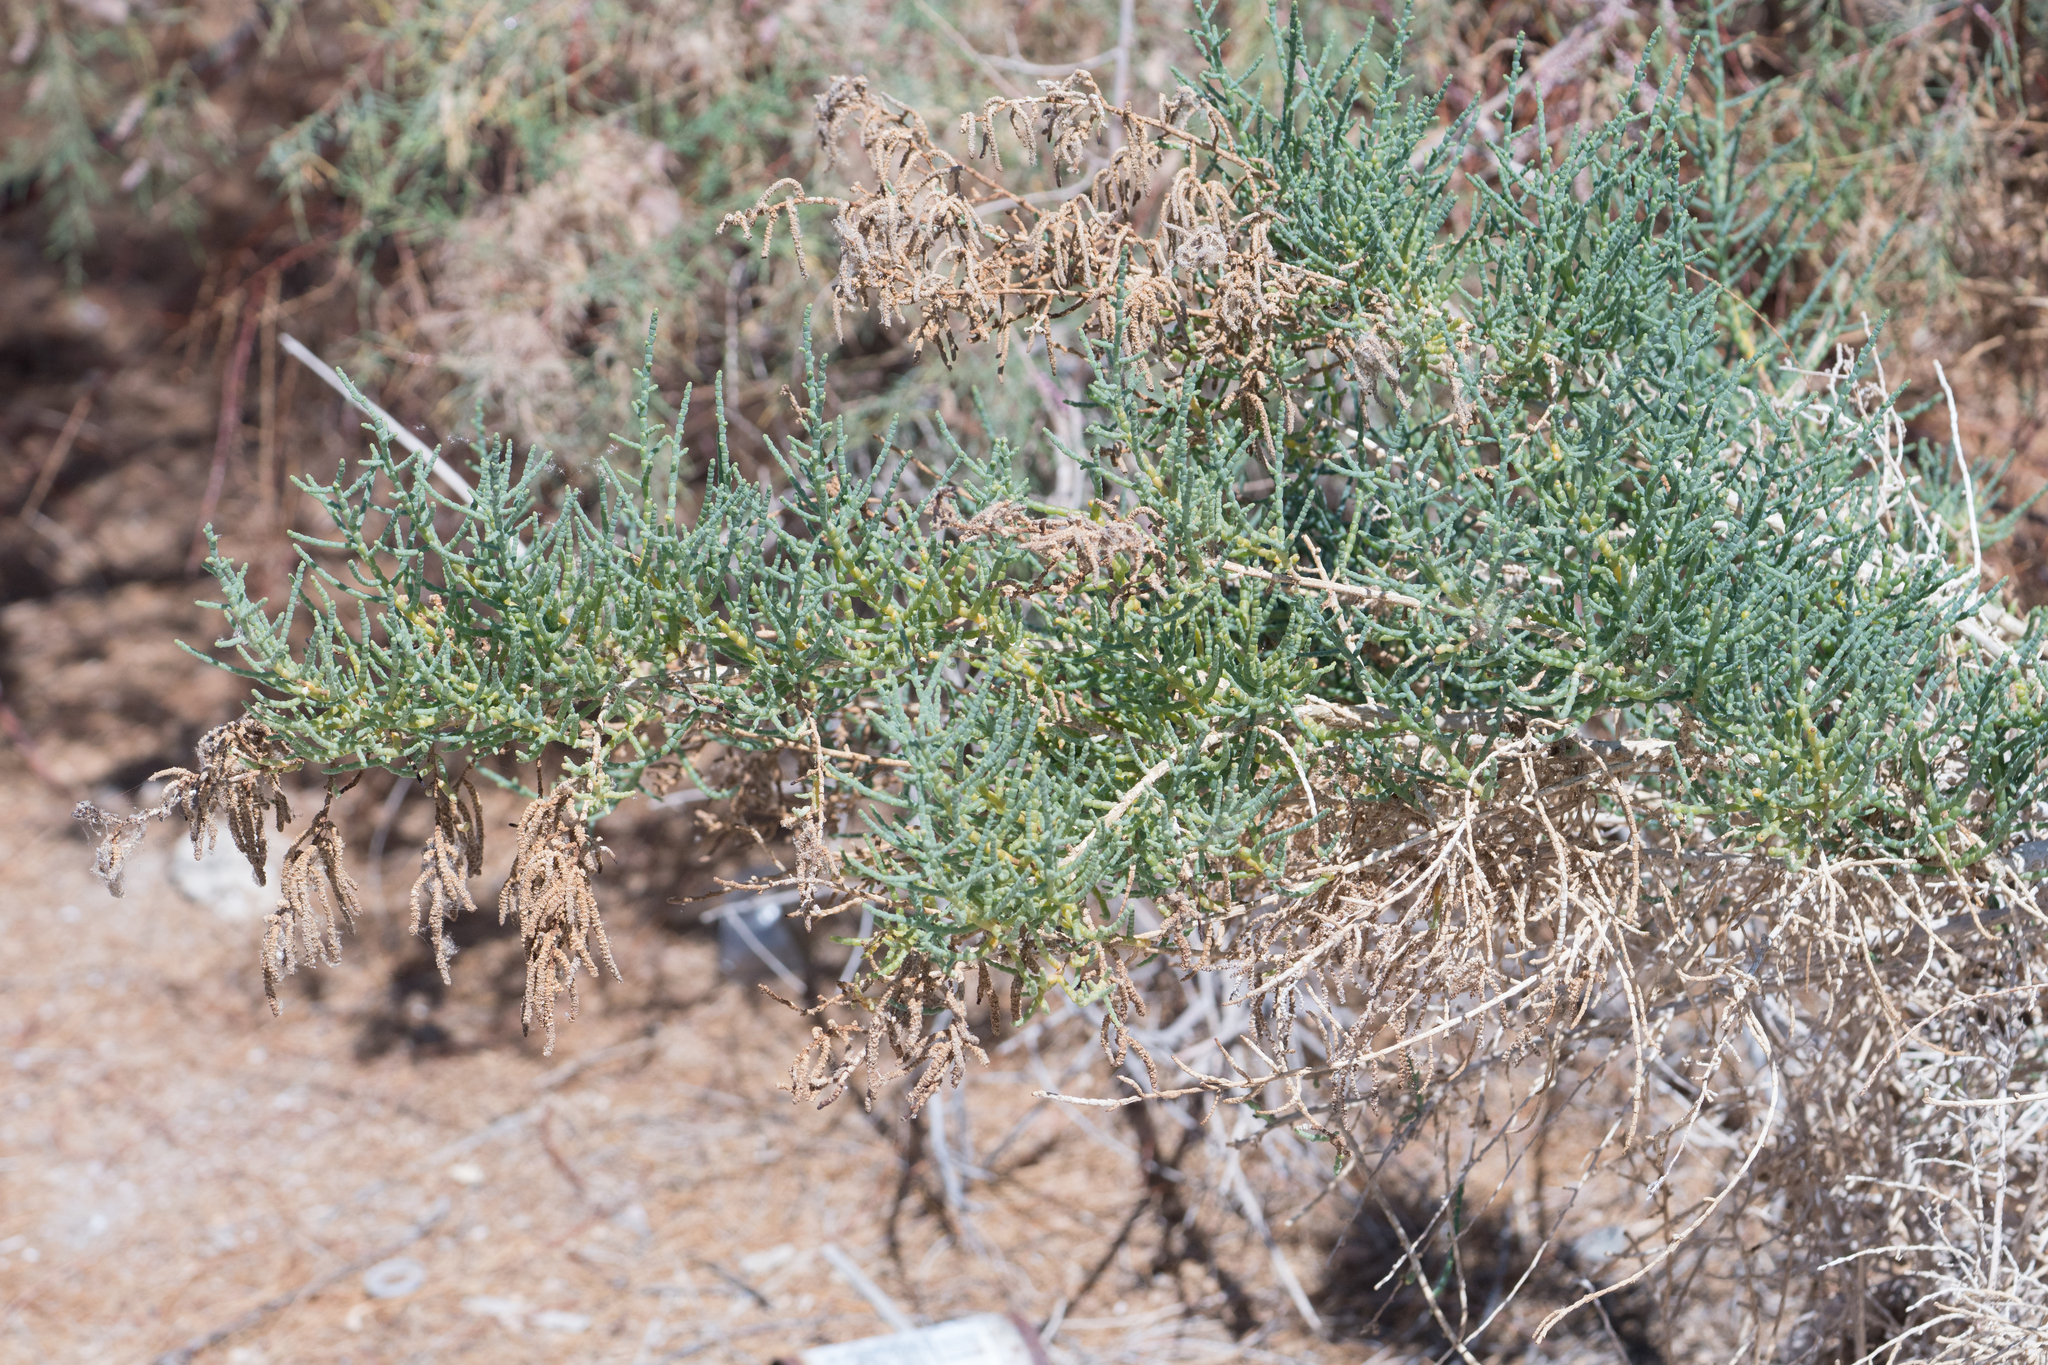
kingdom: Plantae
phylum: Tracheophyta
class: Magnoliopsida
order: Caryophyllales
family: Amaranthaceae
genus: Allenrolfea
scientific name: Allenrolfea occidentalis
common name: Iodine-bush
